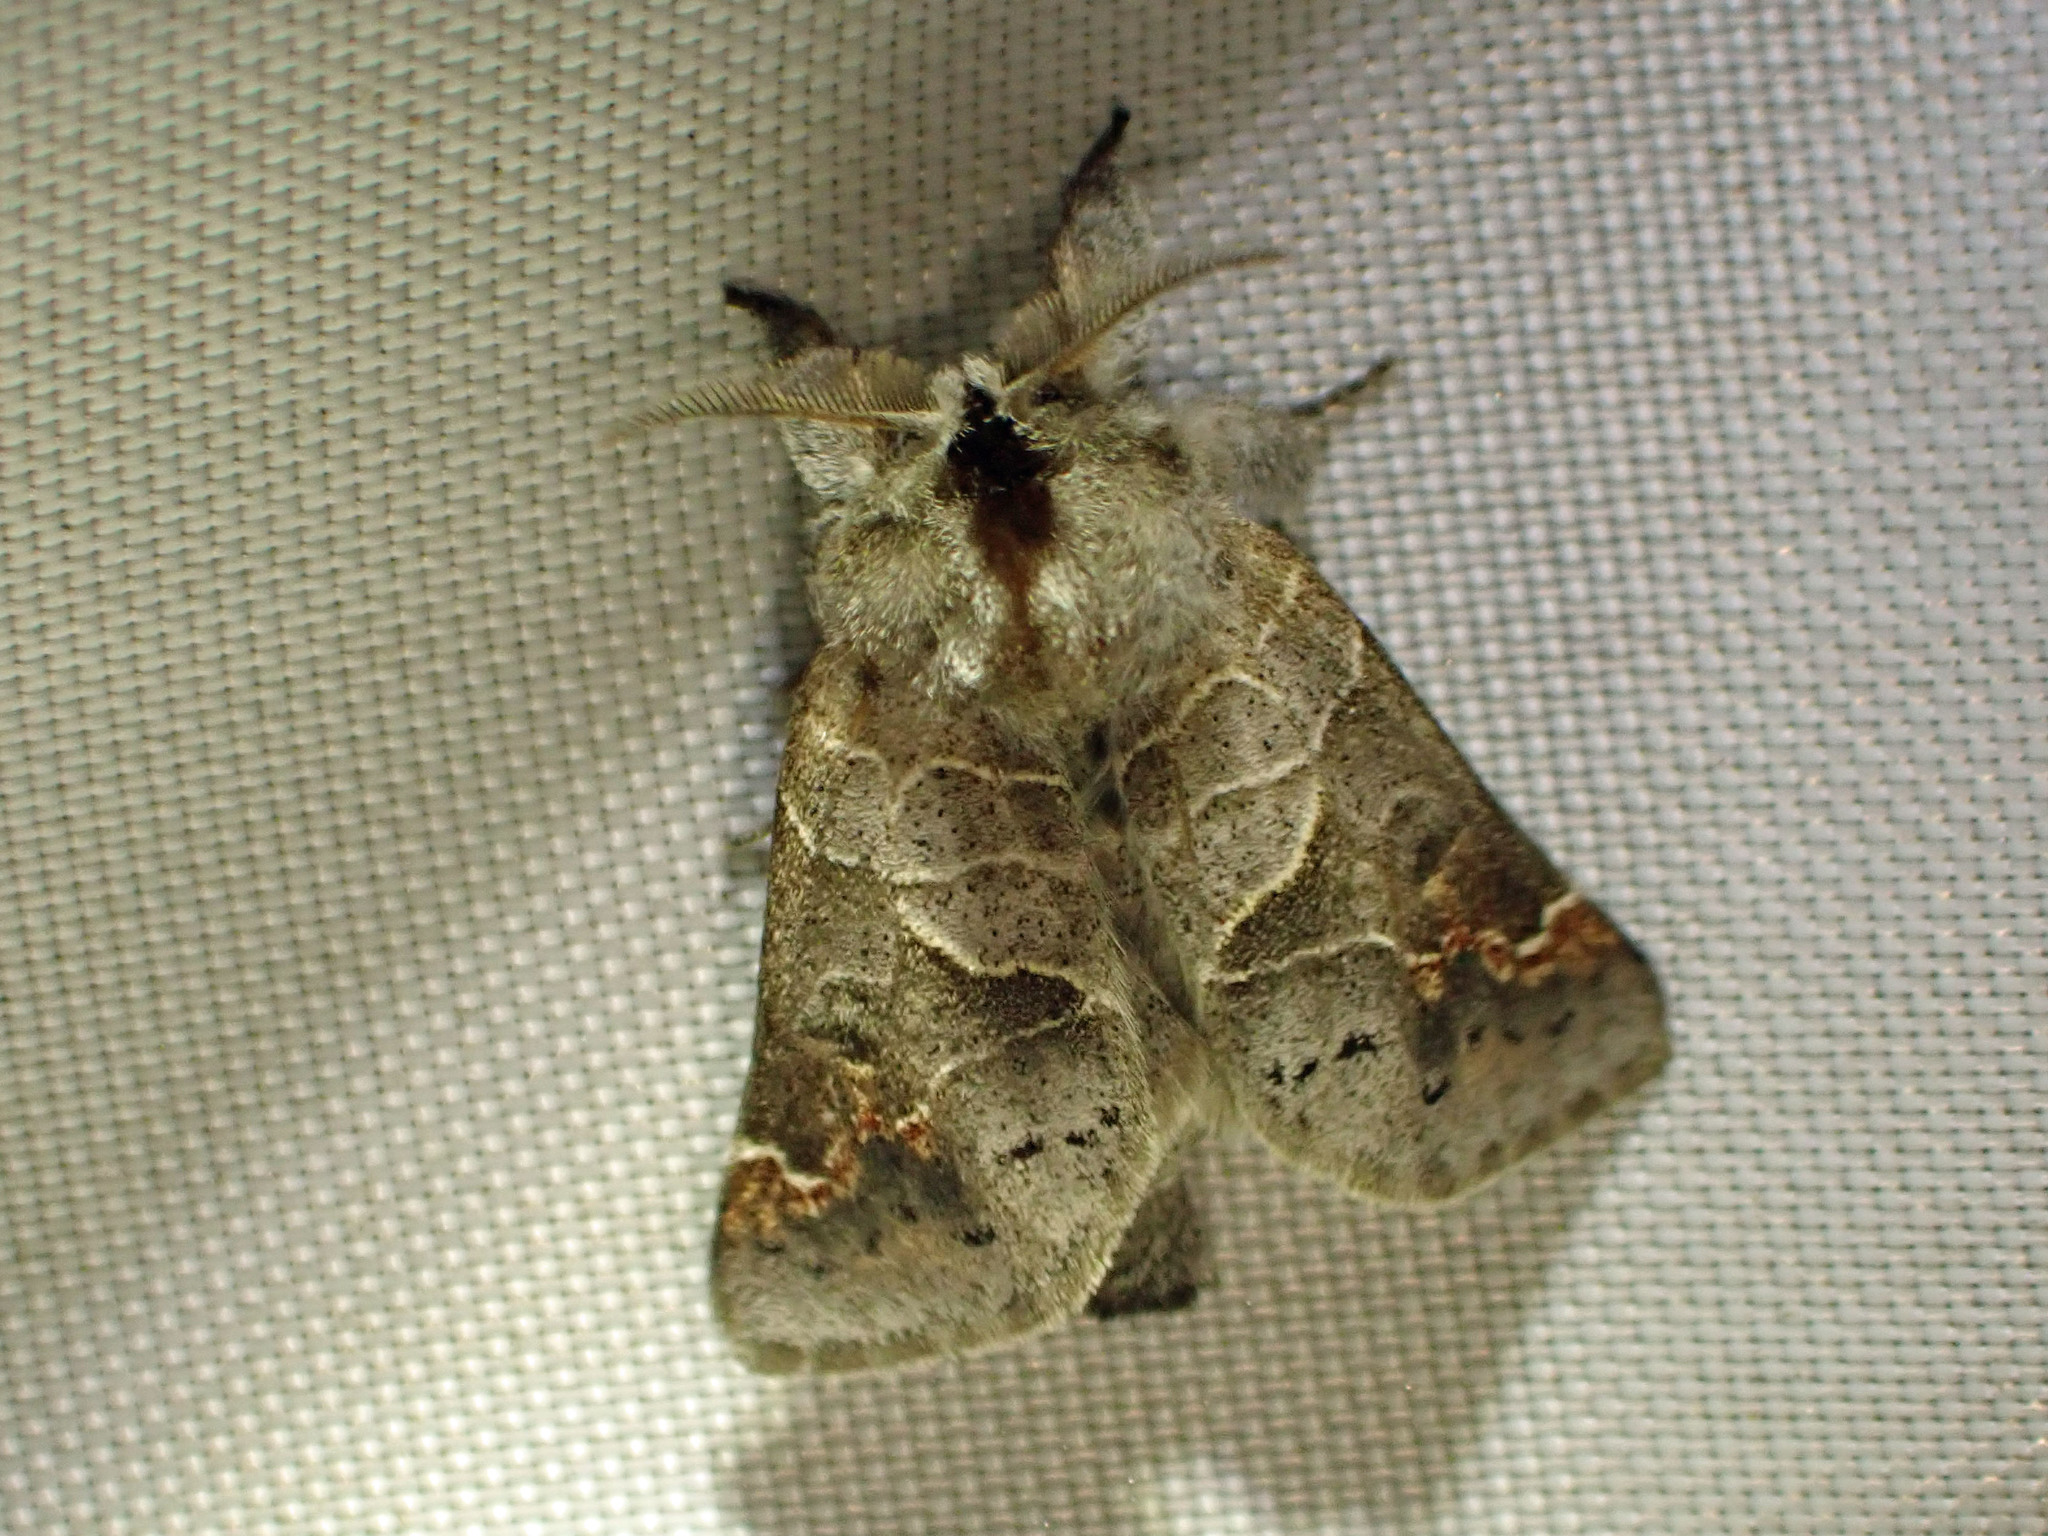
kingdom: Animalia
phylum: Arthropoda
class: Insecta
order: Lepidoptera
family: Notodontidae
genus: Clostera
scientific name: Clostera apicalis
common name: Apical prominent
